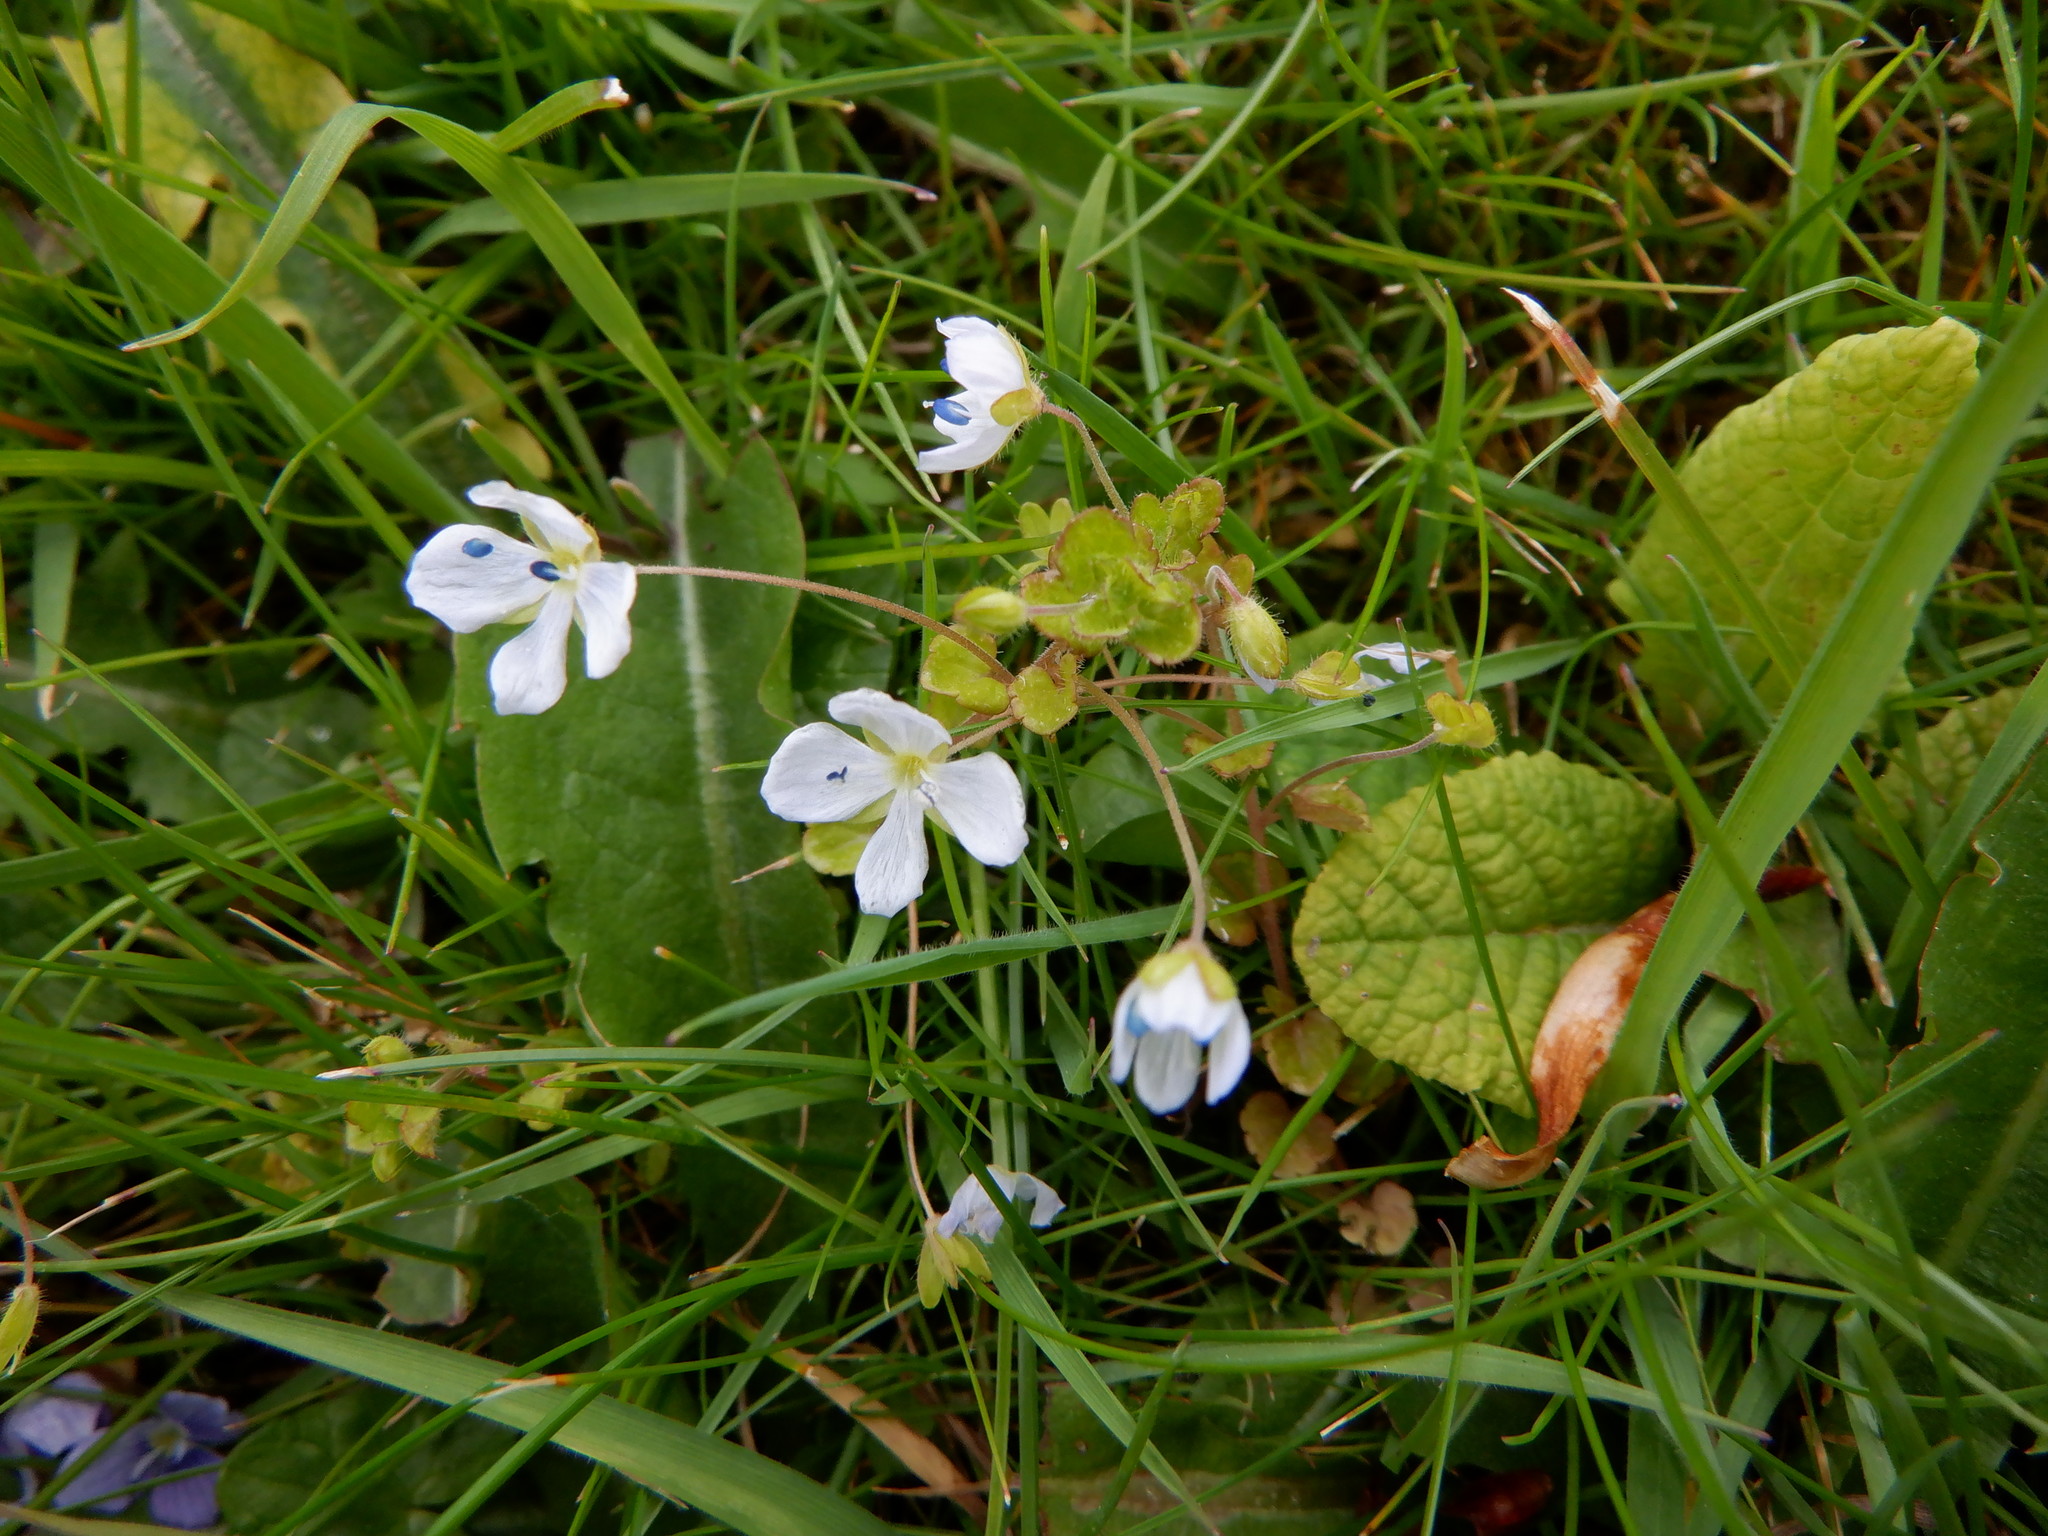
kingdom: Plantae
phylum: Tracheophyta
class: Magnoliopsida
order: Lamiales
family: Plantaginaceae
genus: Veronica
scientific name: Veronica filiformis
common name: Slender speedwell
